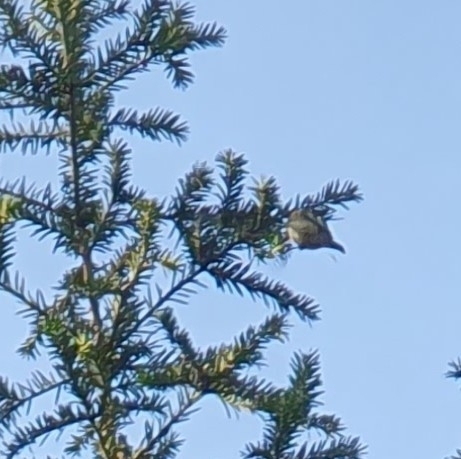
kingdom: Animalia
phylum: Chordata
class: Aves
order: Passeriformes
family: Regulidae
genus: Regulus
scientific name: Regulus regulus
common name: Goldcrest
